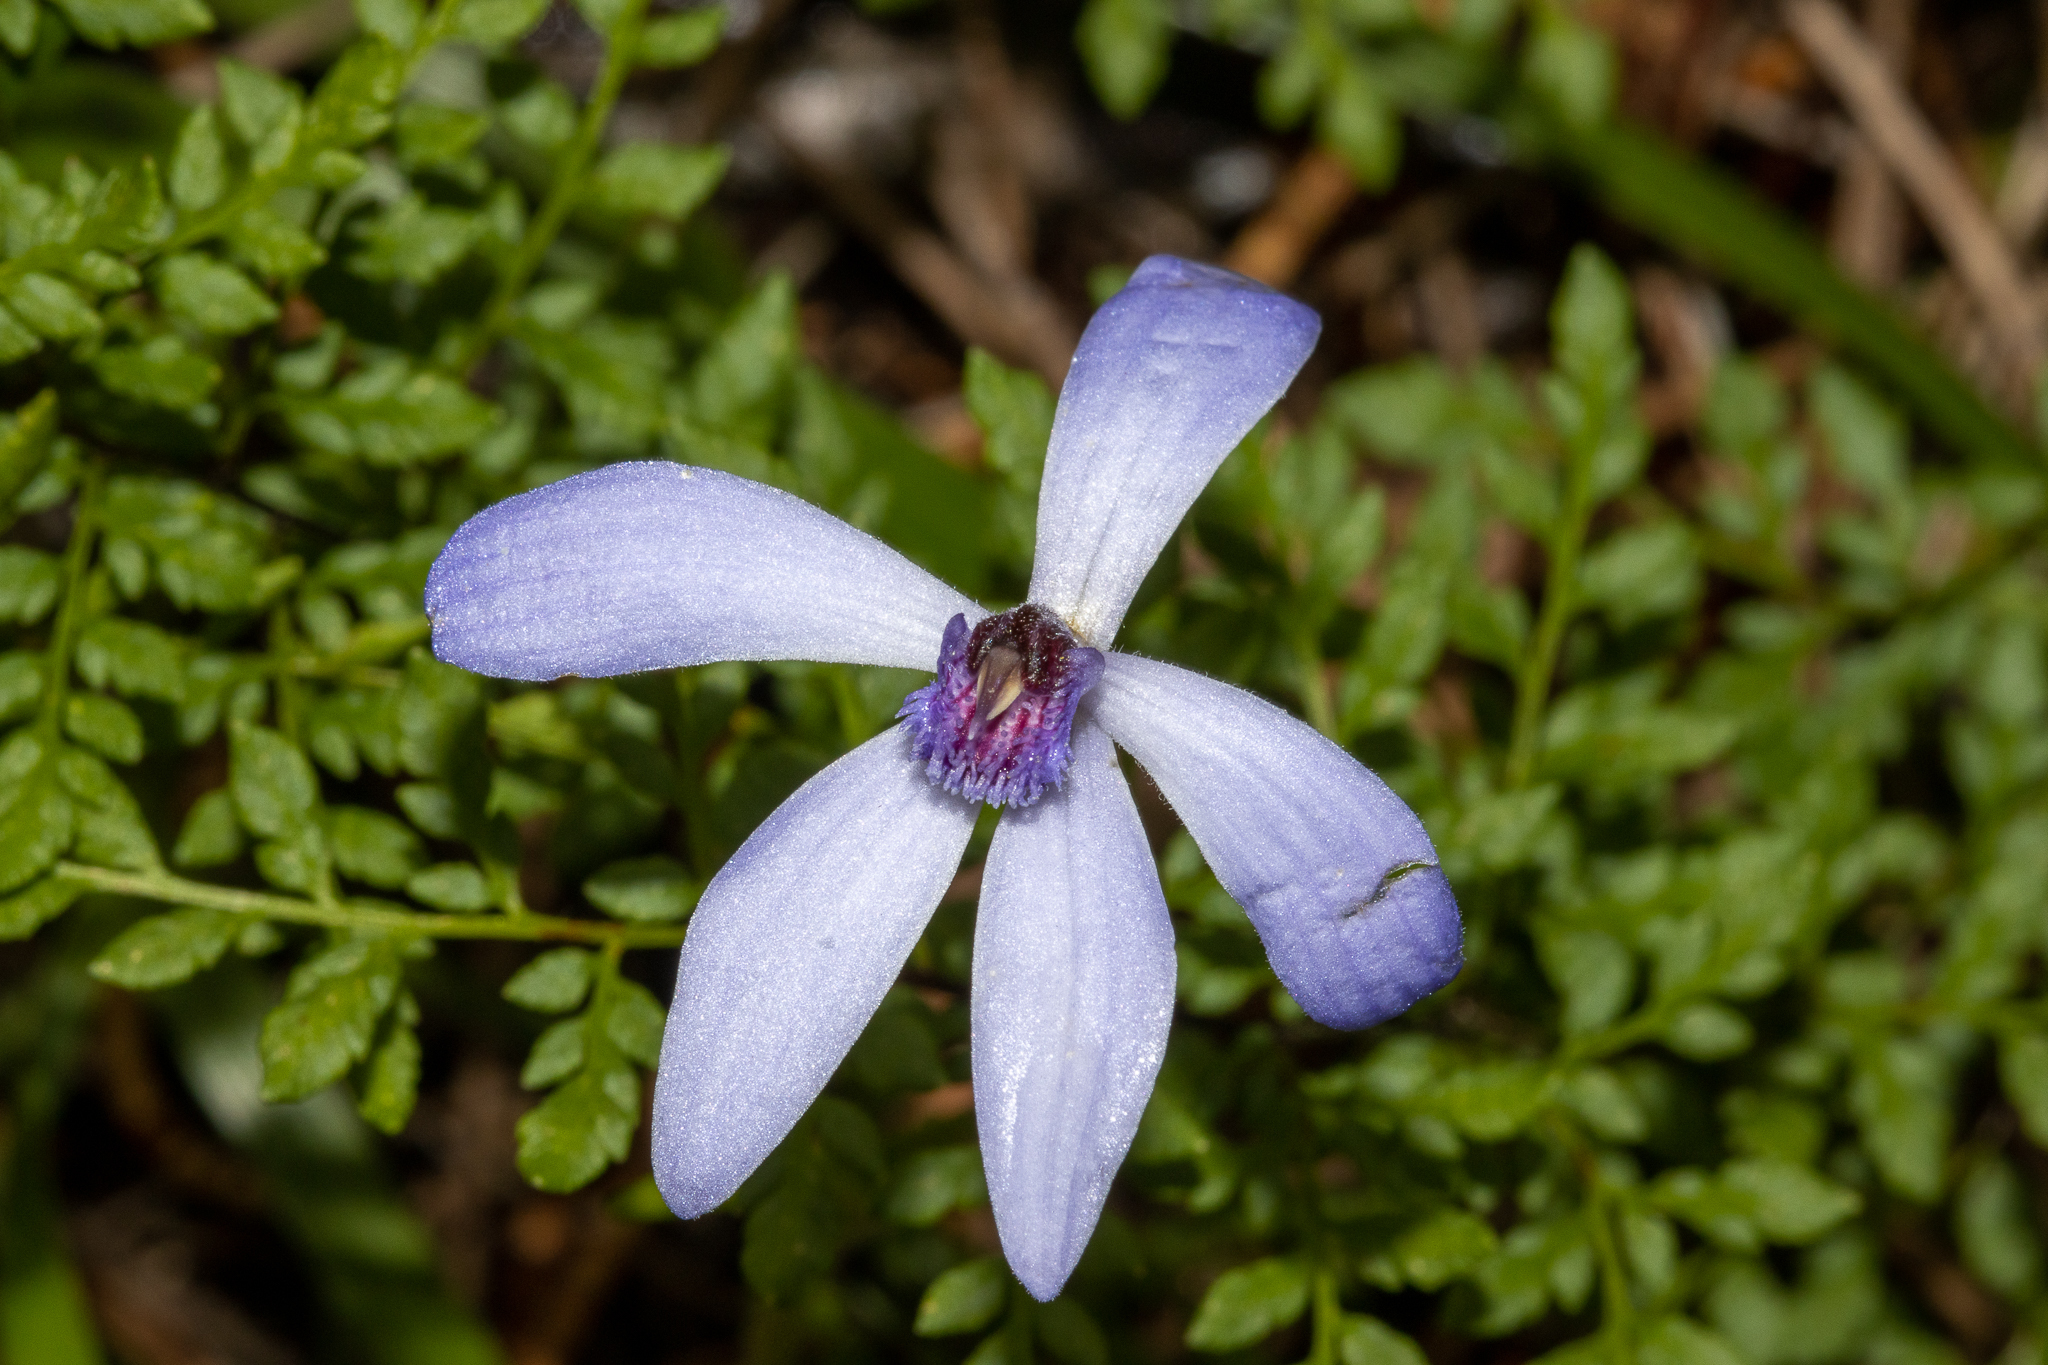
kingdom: Plantae
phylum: Tracheophyta
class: Liliopsida
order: Asparagales
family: Orchidaceae
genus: Pheladenia
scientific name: Pheladenia deformis
